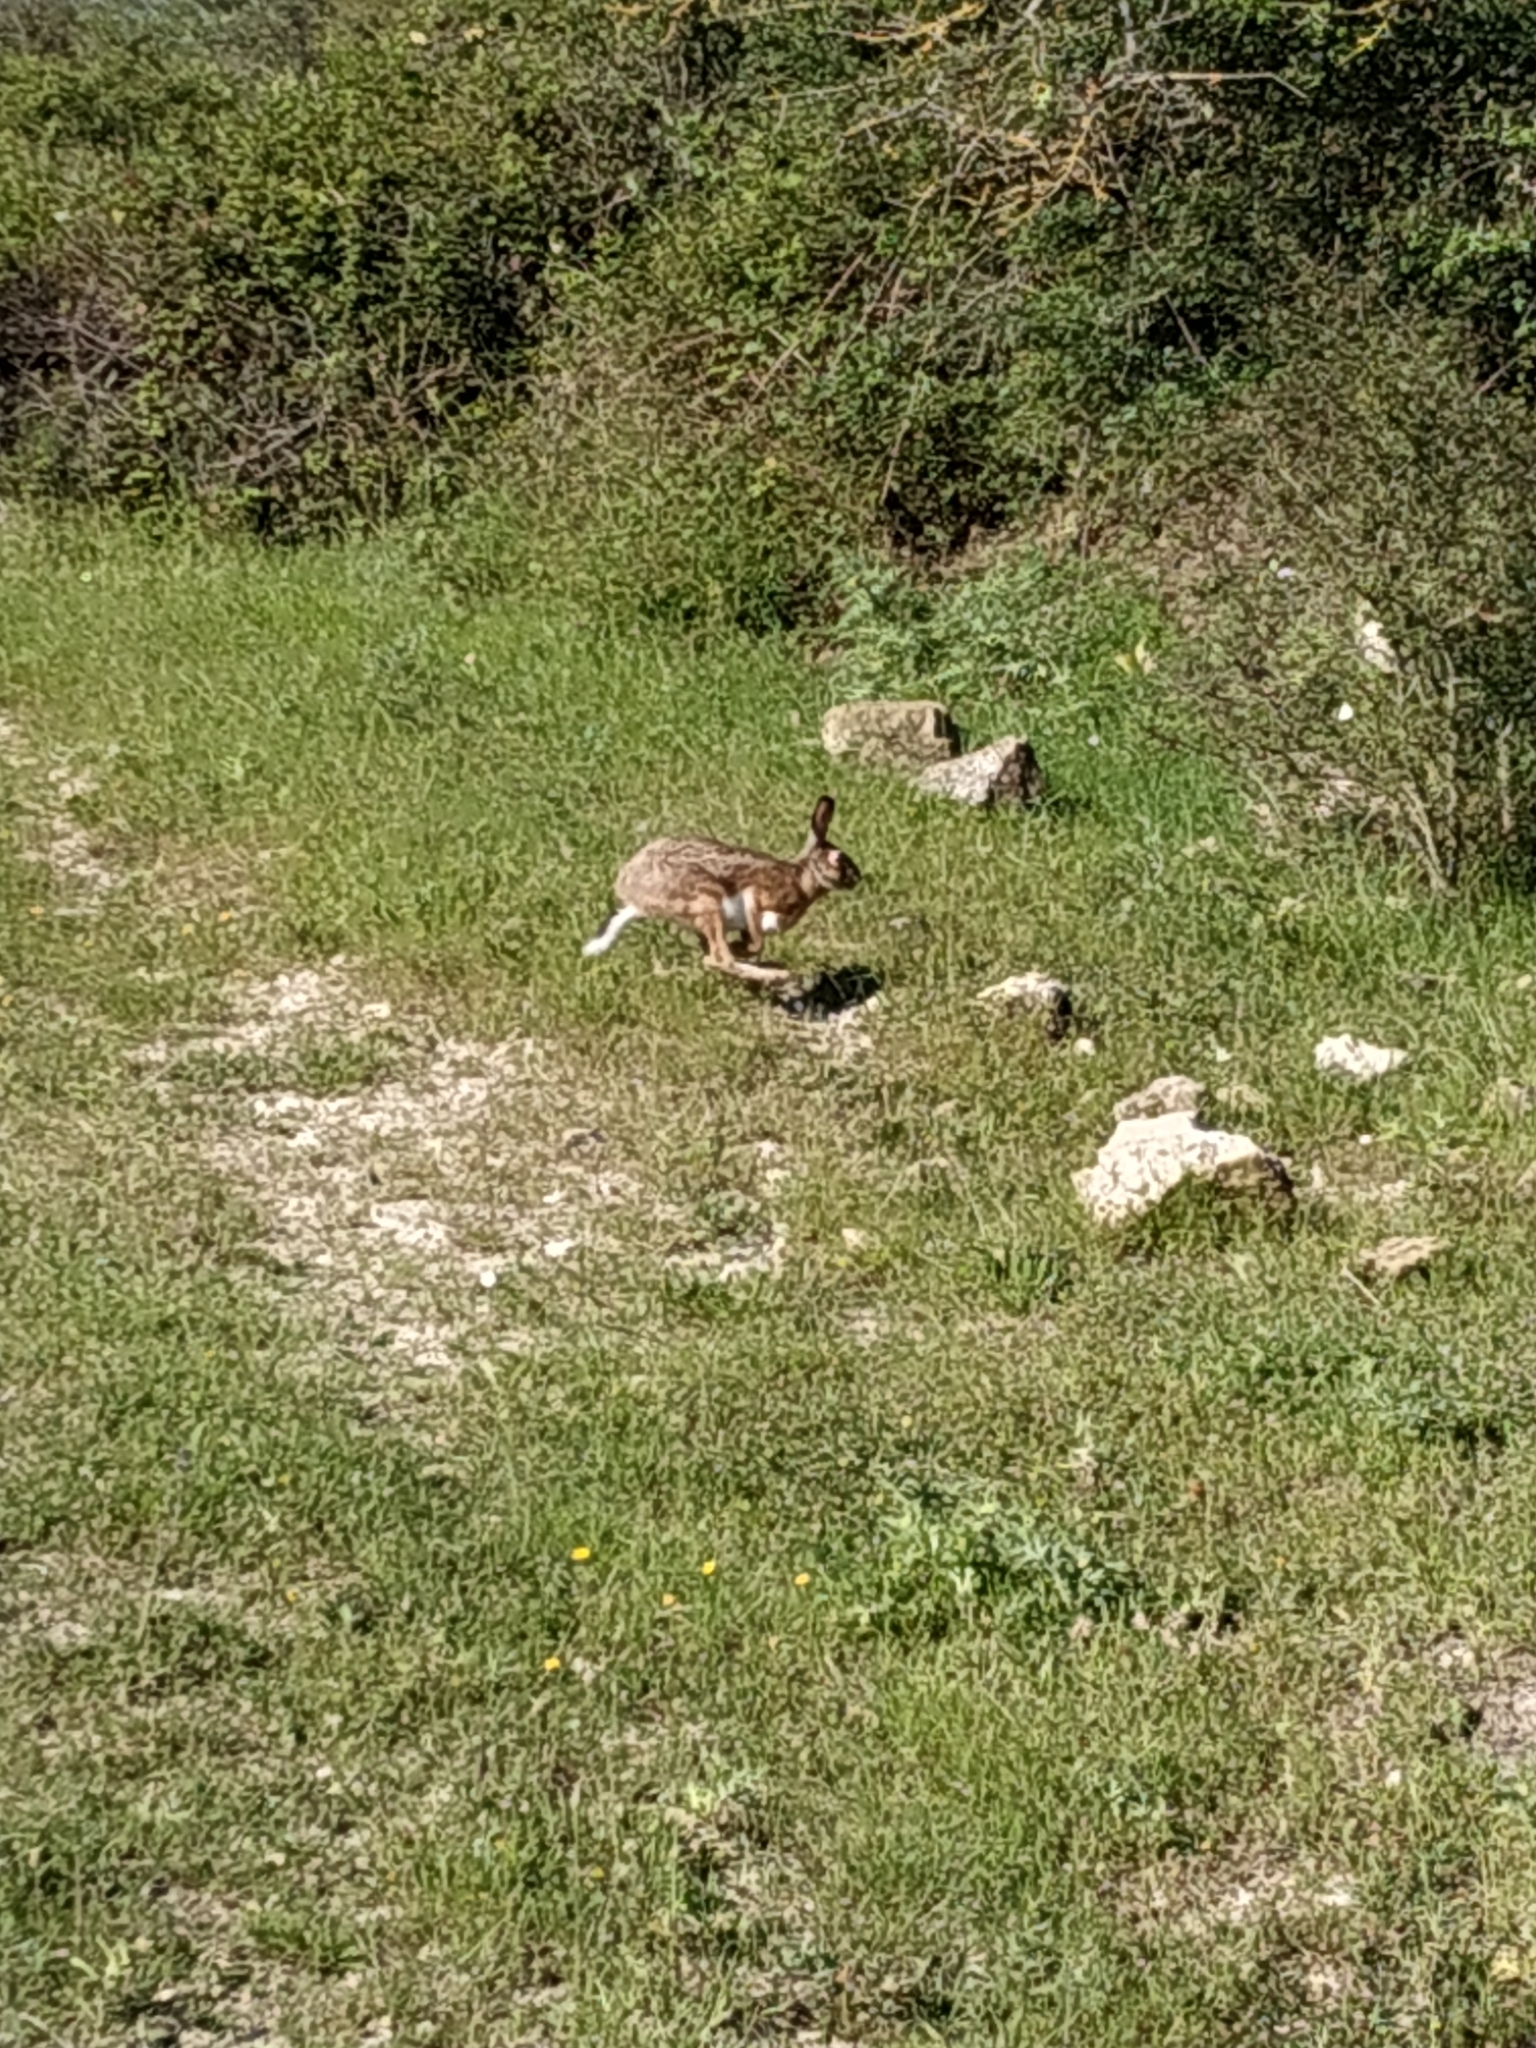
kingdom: Animalia
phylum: Chordata
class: Mammalia
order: Lagomorpha
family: Leporidae
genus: Lepus
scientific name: Lepus corsicanus
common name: Corsican hare
